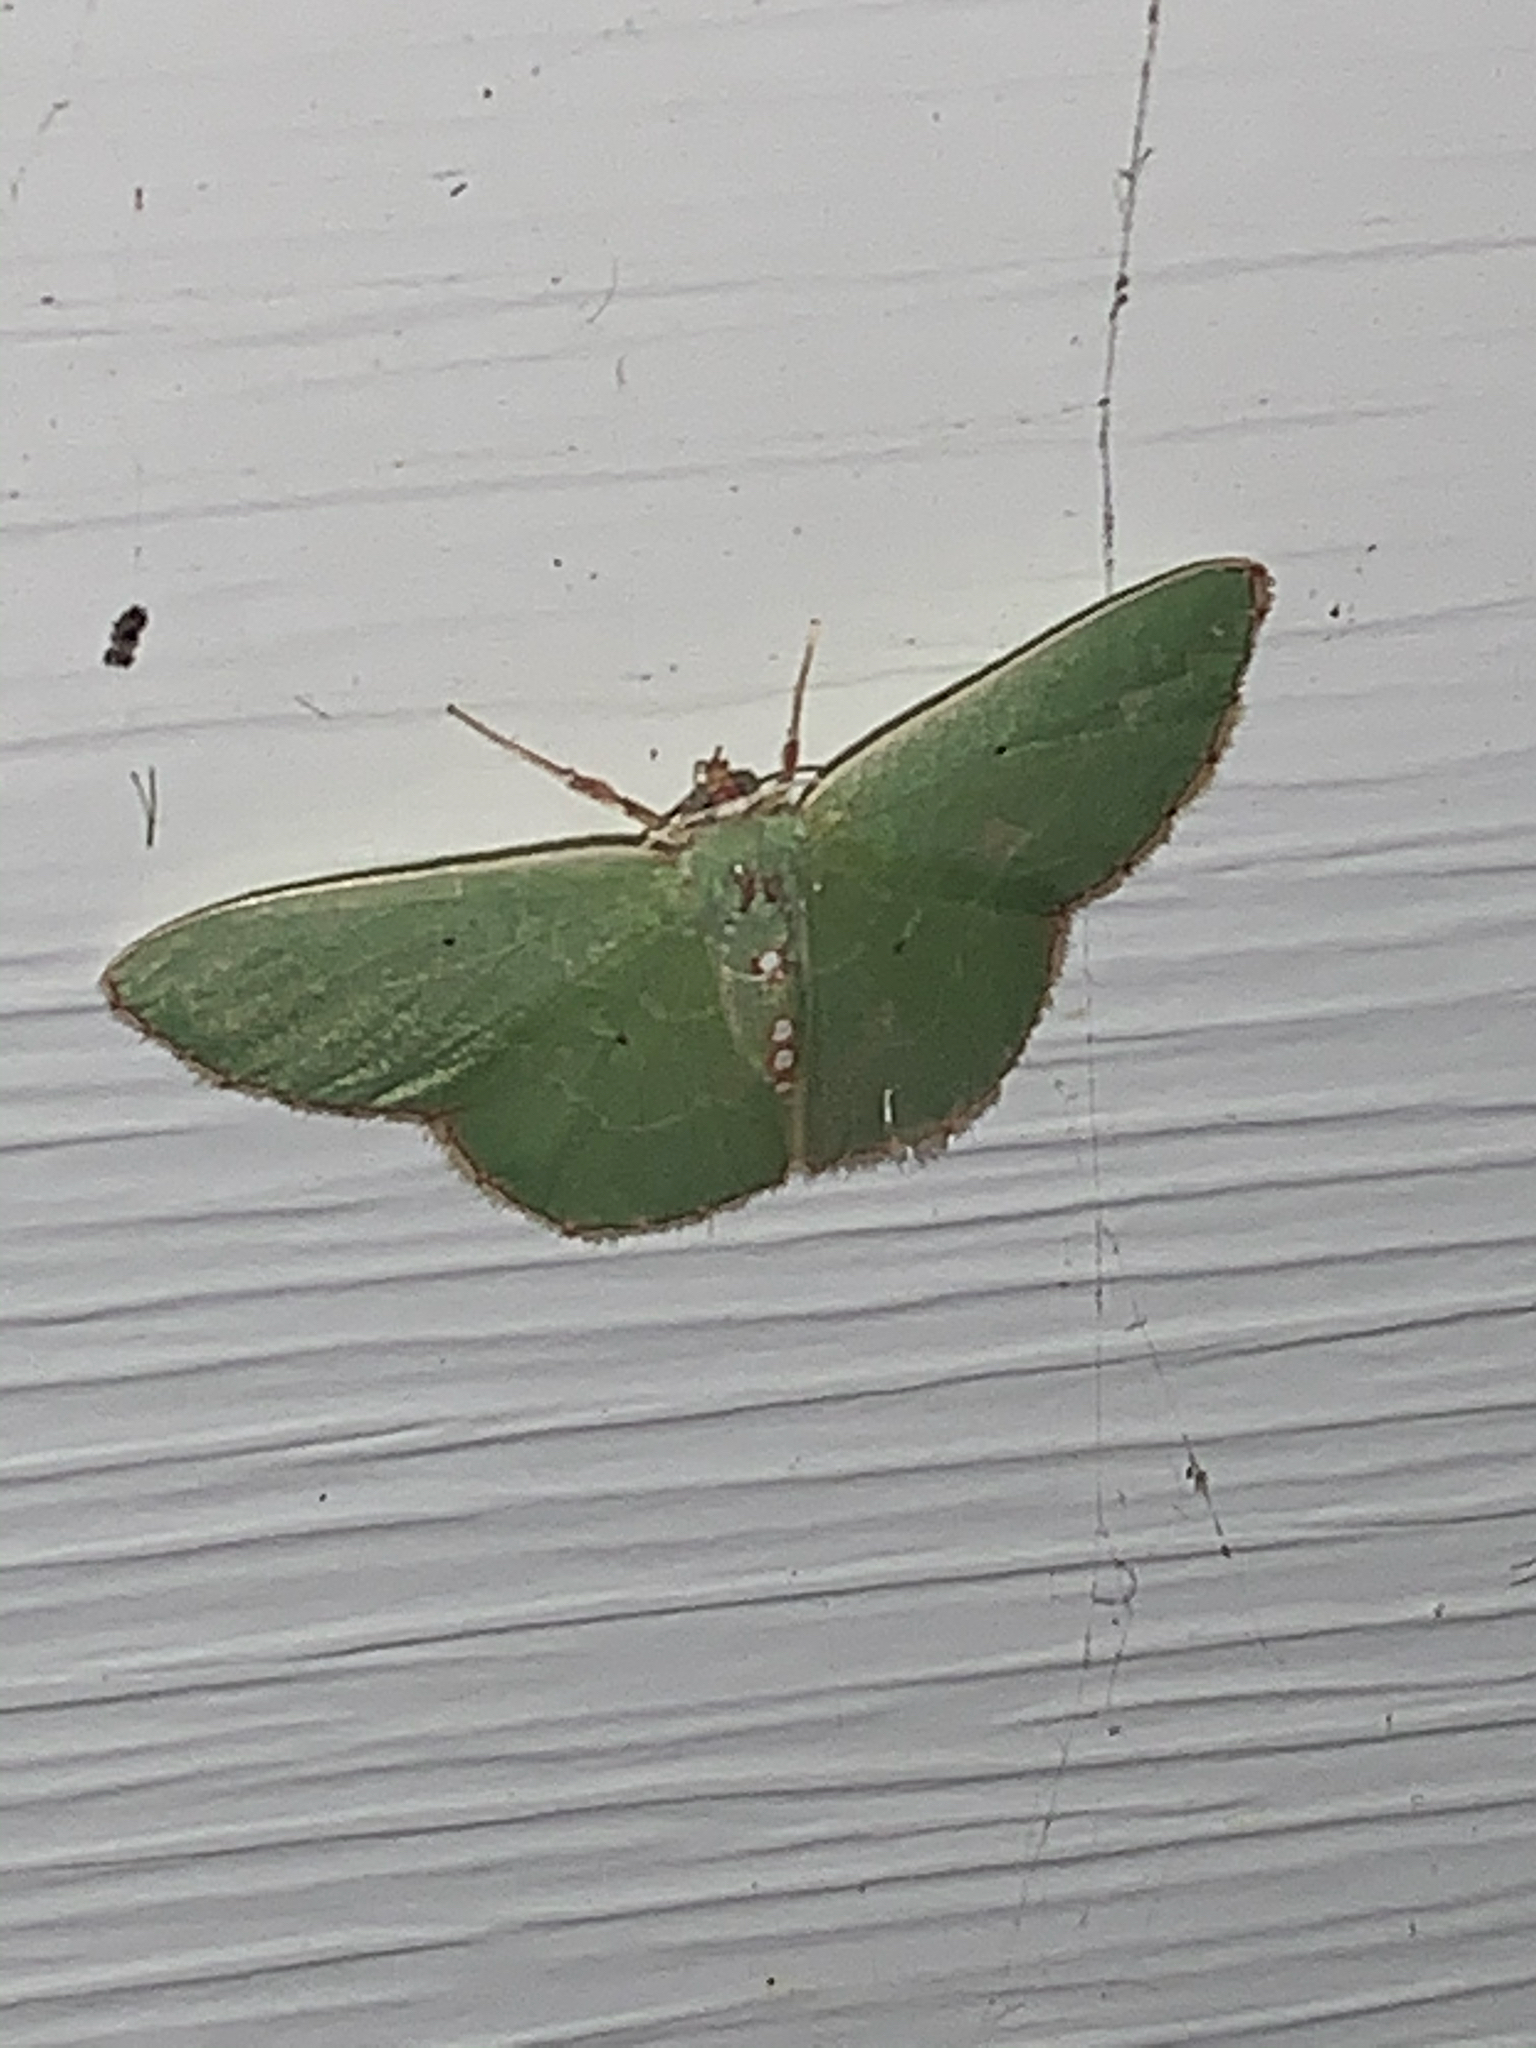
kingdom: Animalia
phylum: Arthropoda
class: Insecta
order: Lepidoptera
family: Geometridae
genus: Nemoria
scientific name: Nemoria lixaria
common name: Red-bordered emerald
